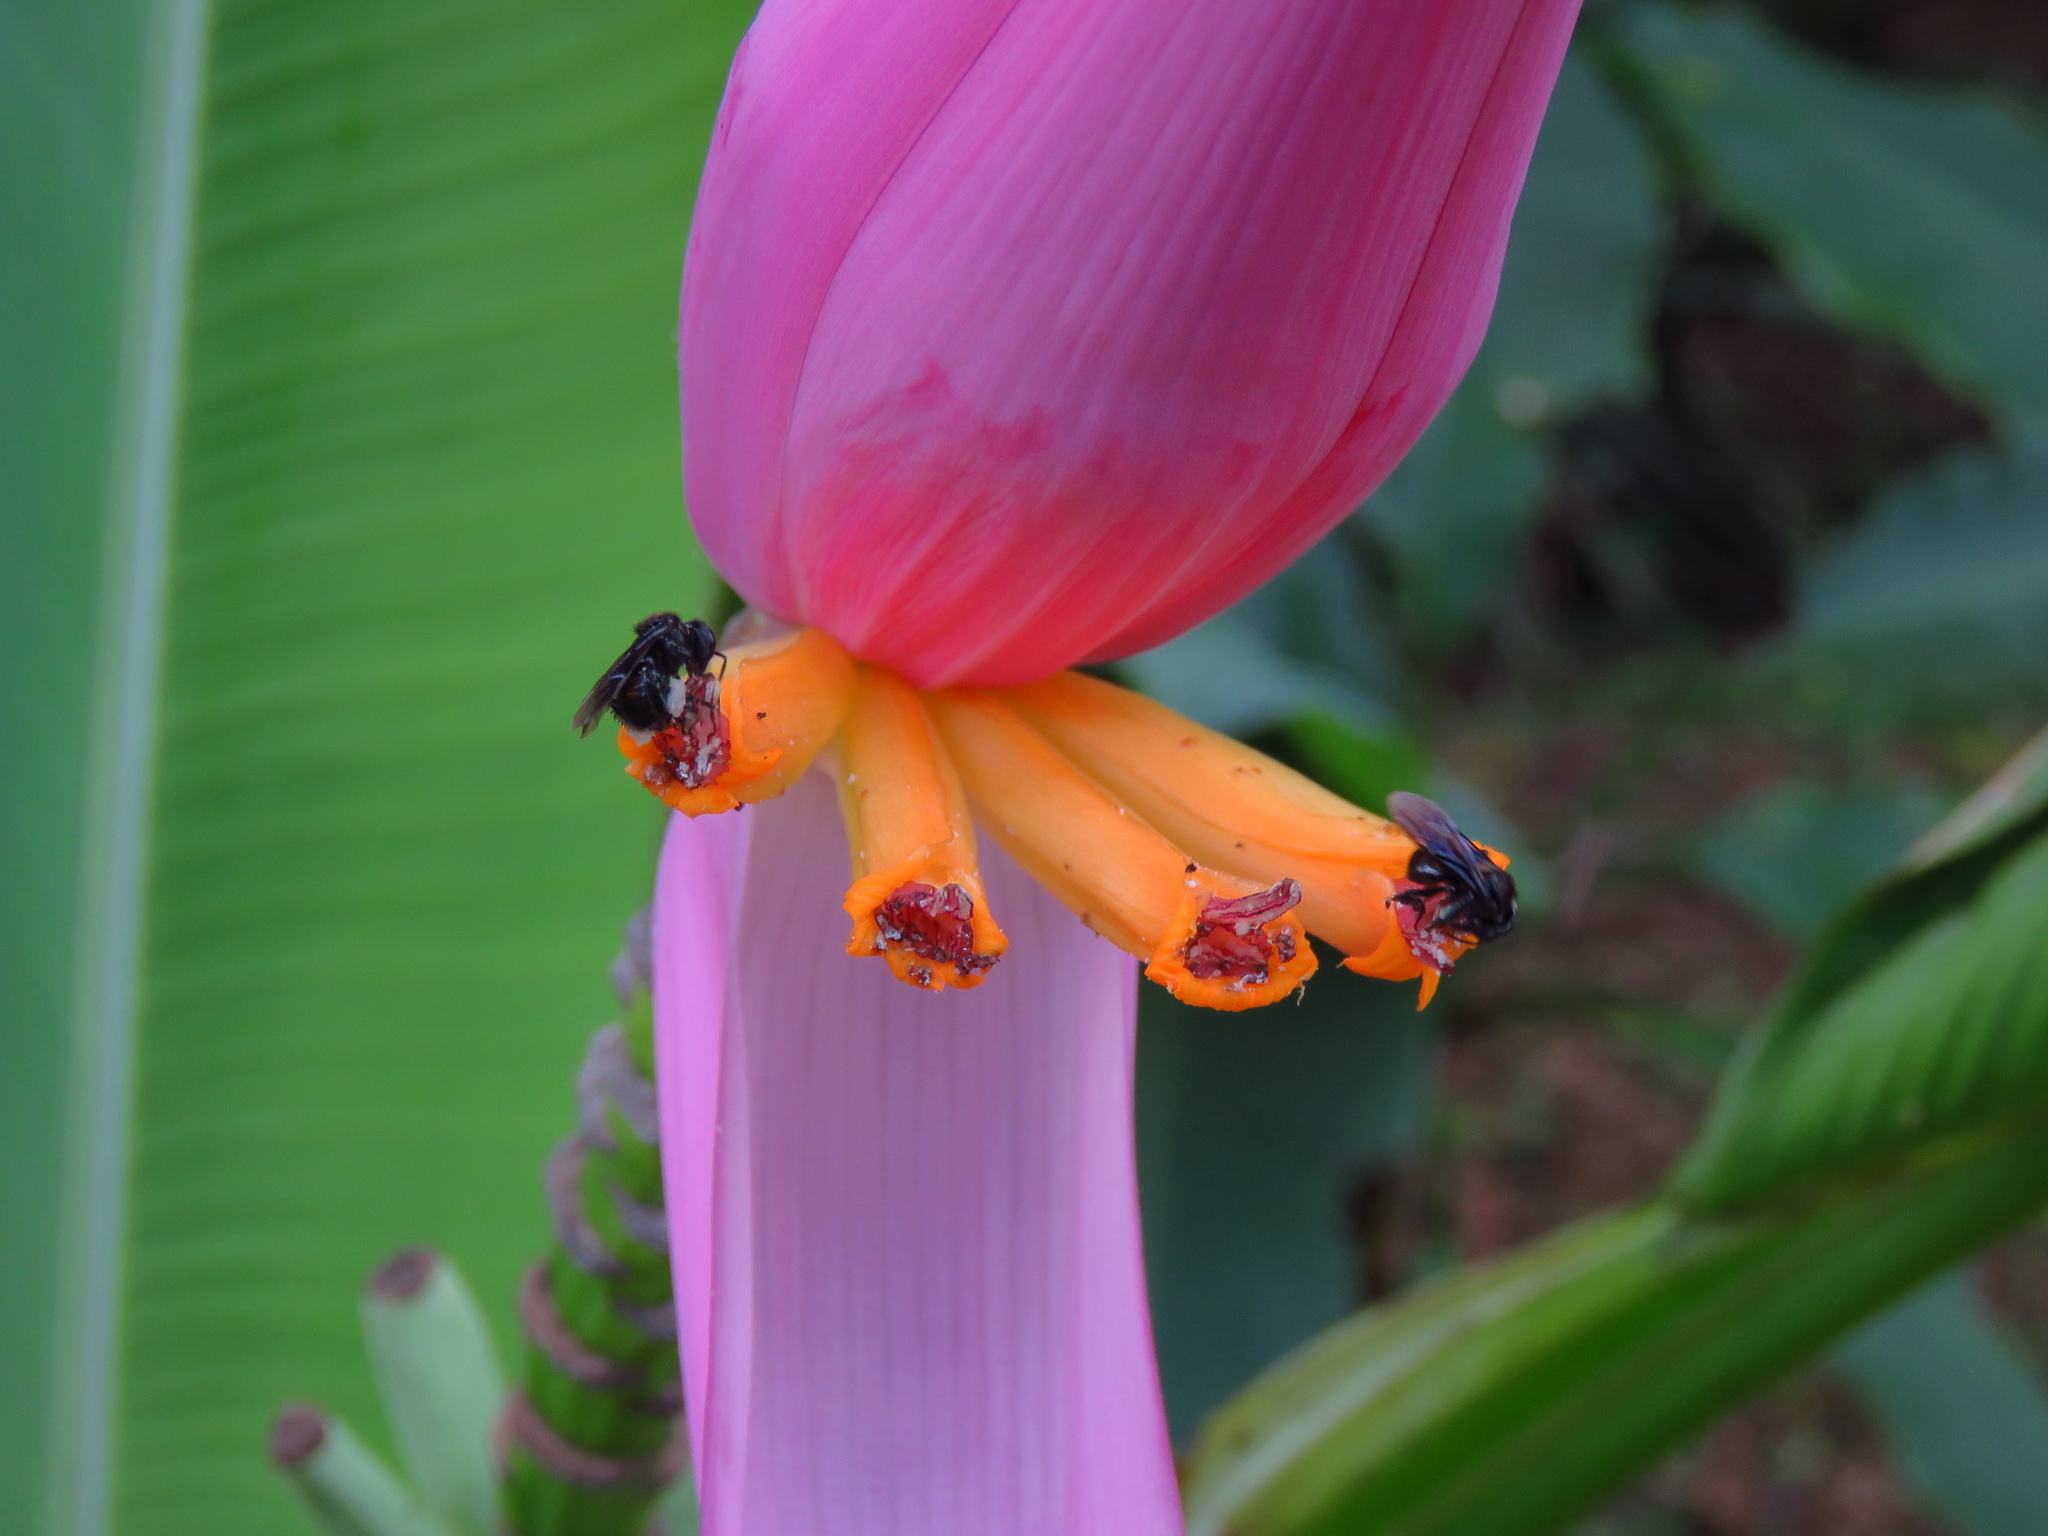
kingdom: Plantae
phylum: Tracheophyta
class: Liliopsida
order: Zingiberales
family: Musaceae
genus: Musa
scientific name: Musa ornata
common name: Flowering banana
